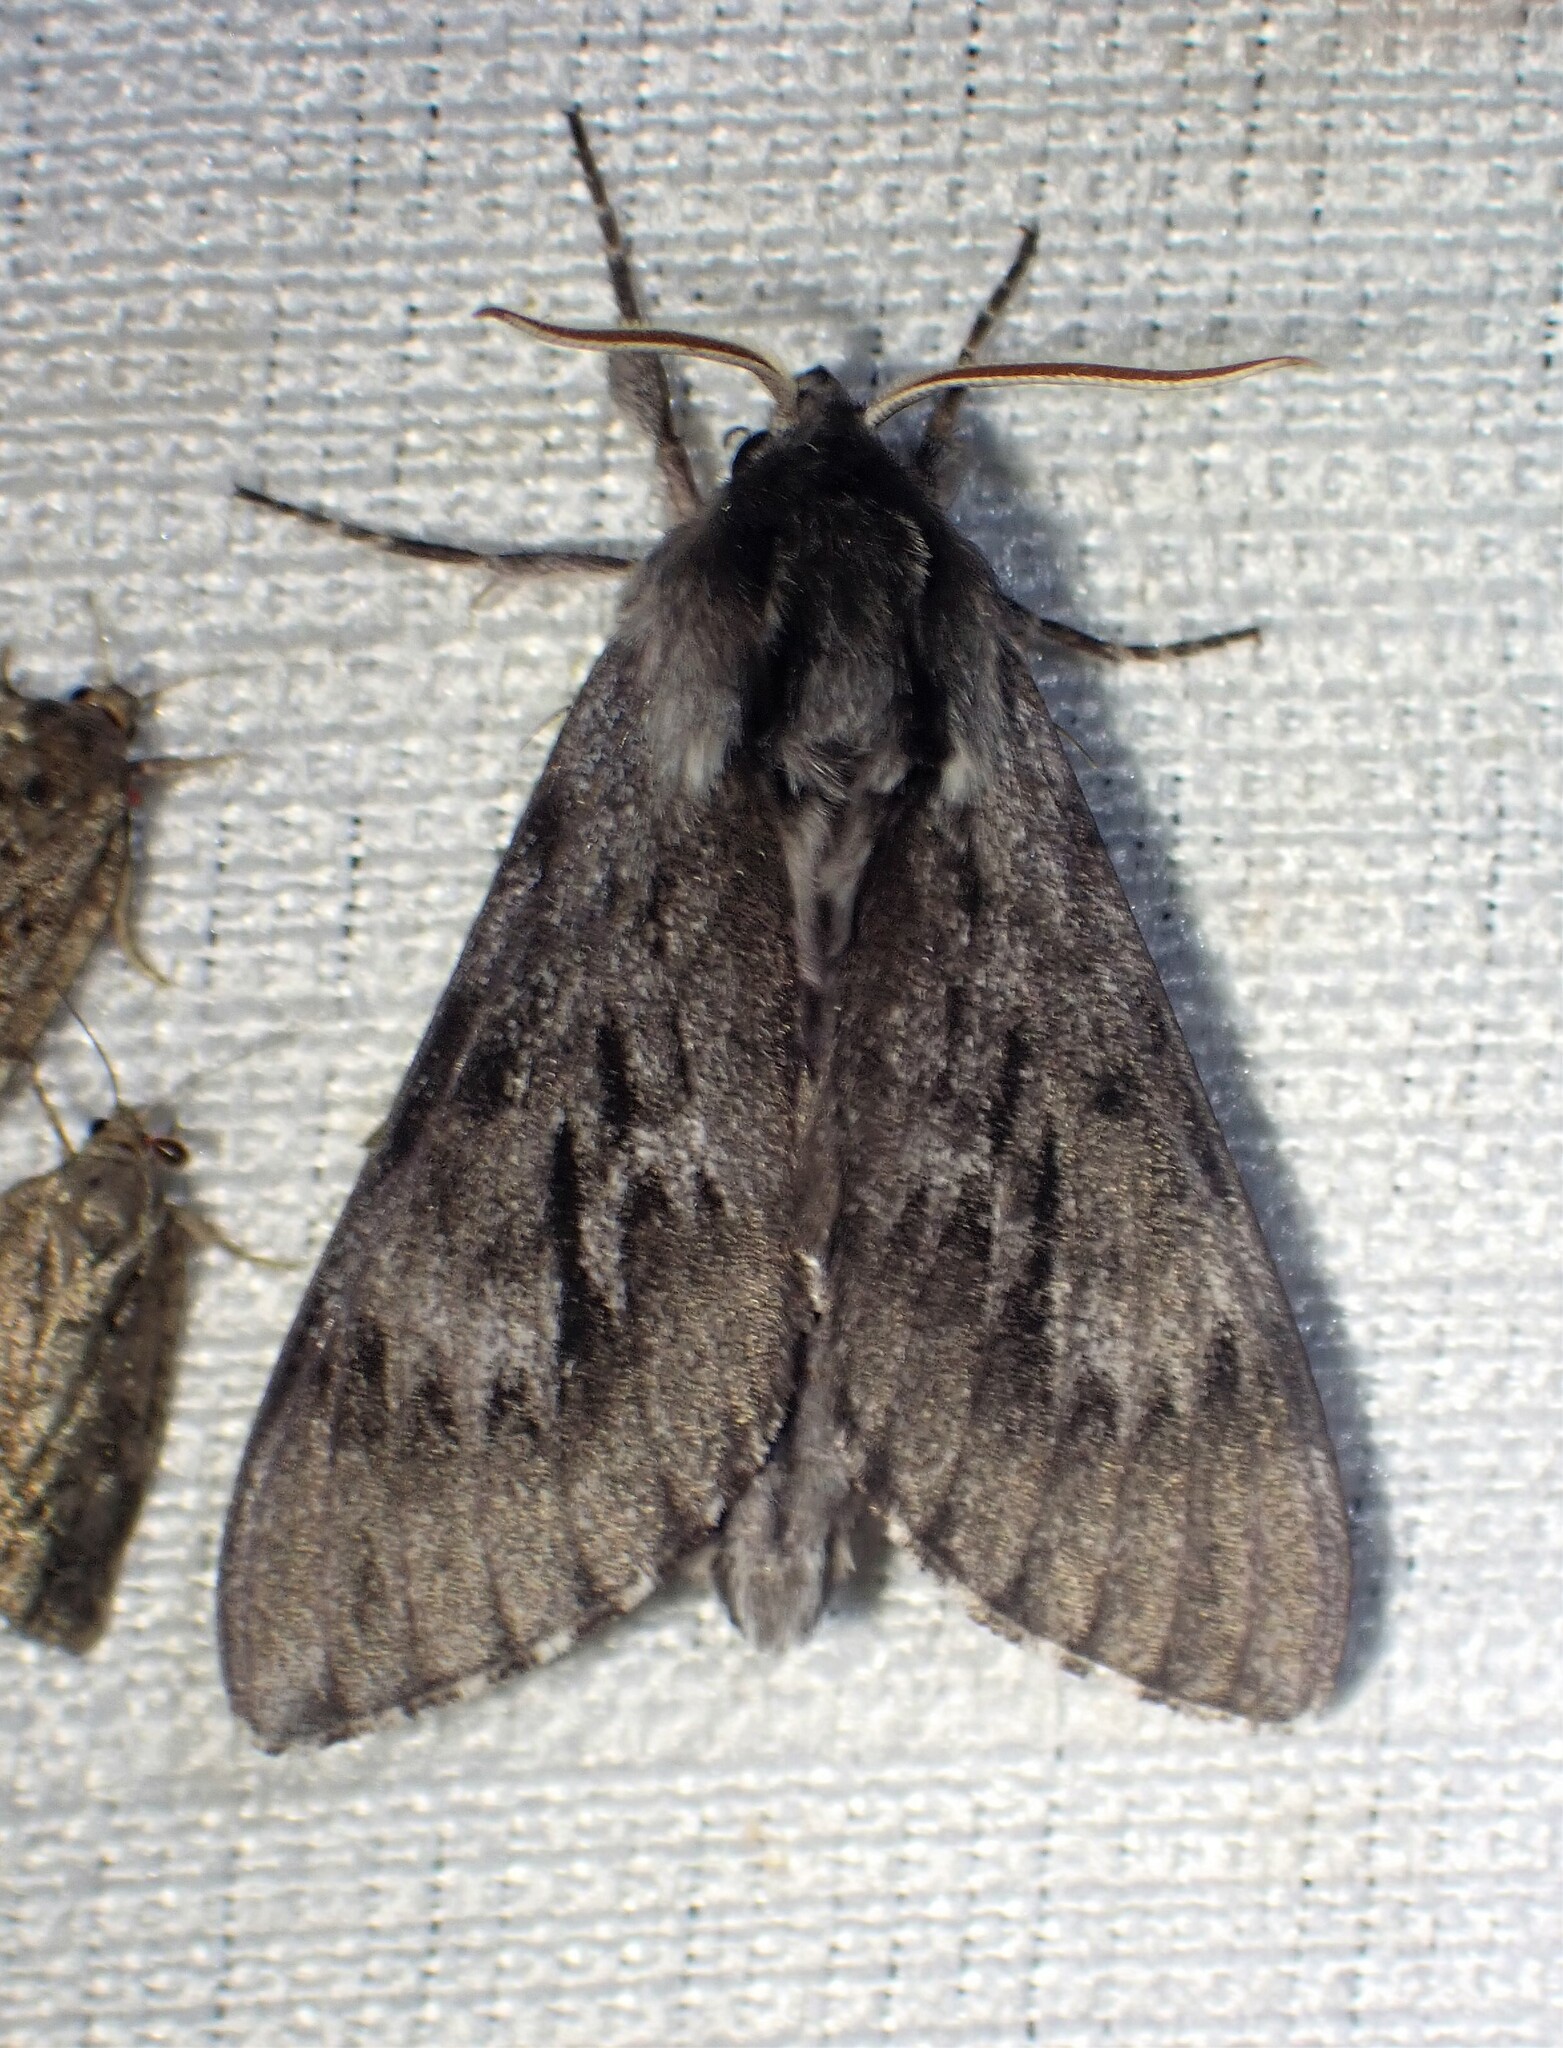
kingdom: Animalia
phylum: Arthropoda
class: Insecta
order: Lepidoptera
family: Sphingidae
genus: Lapara
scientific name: Lapara bombycoides
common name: Northern pine sphinx
